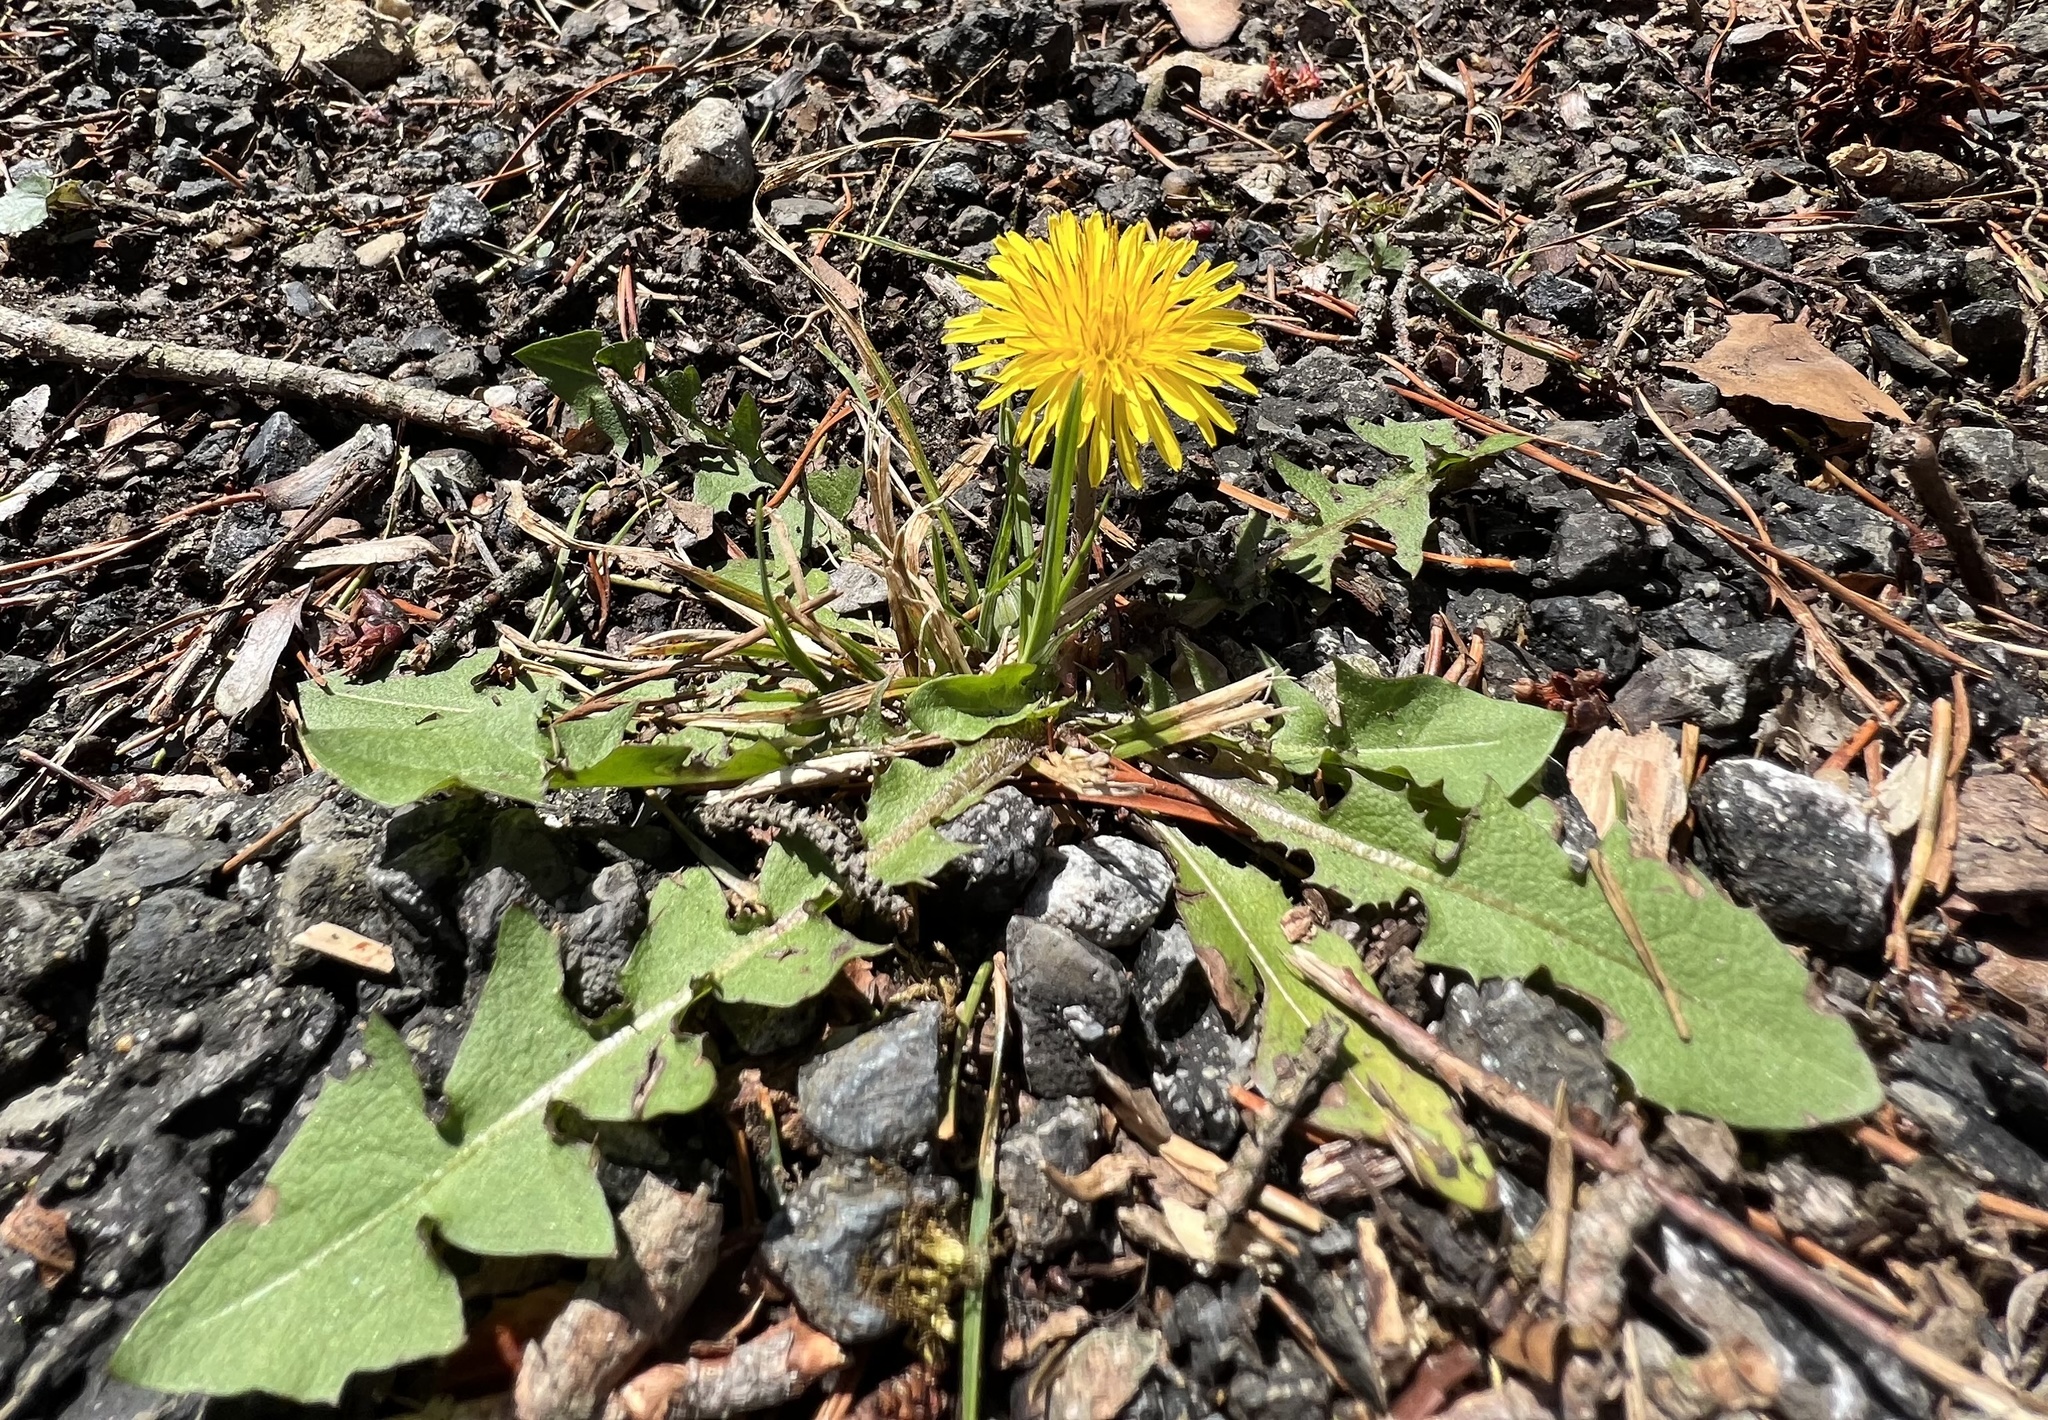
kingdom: Plantae
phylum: Tracheophyta
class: Magnoliopsida
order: Asterales
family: Asteraceae
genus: Taraxacum
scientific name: Taraxacum officinale
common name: Common dandelion
